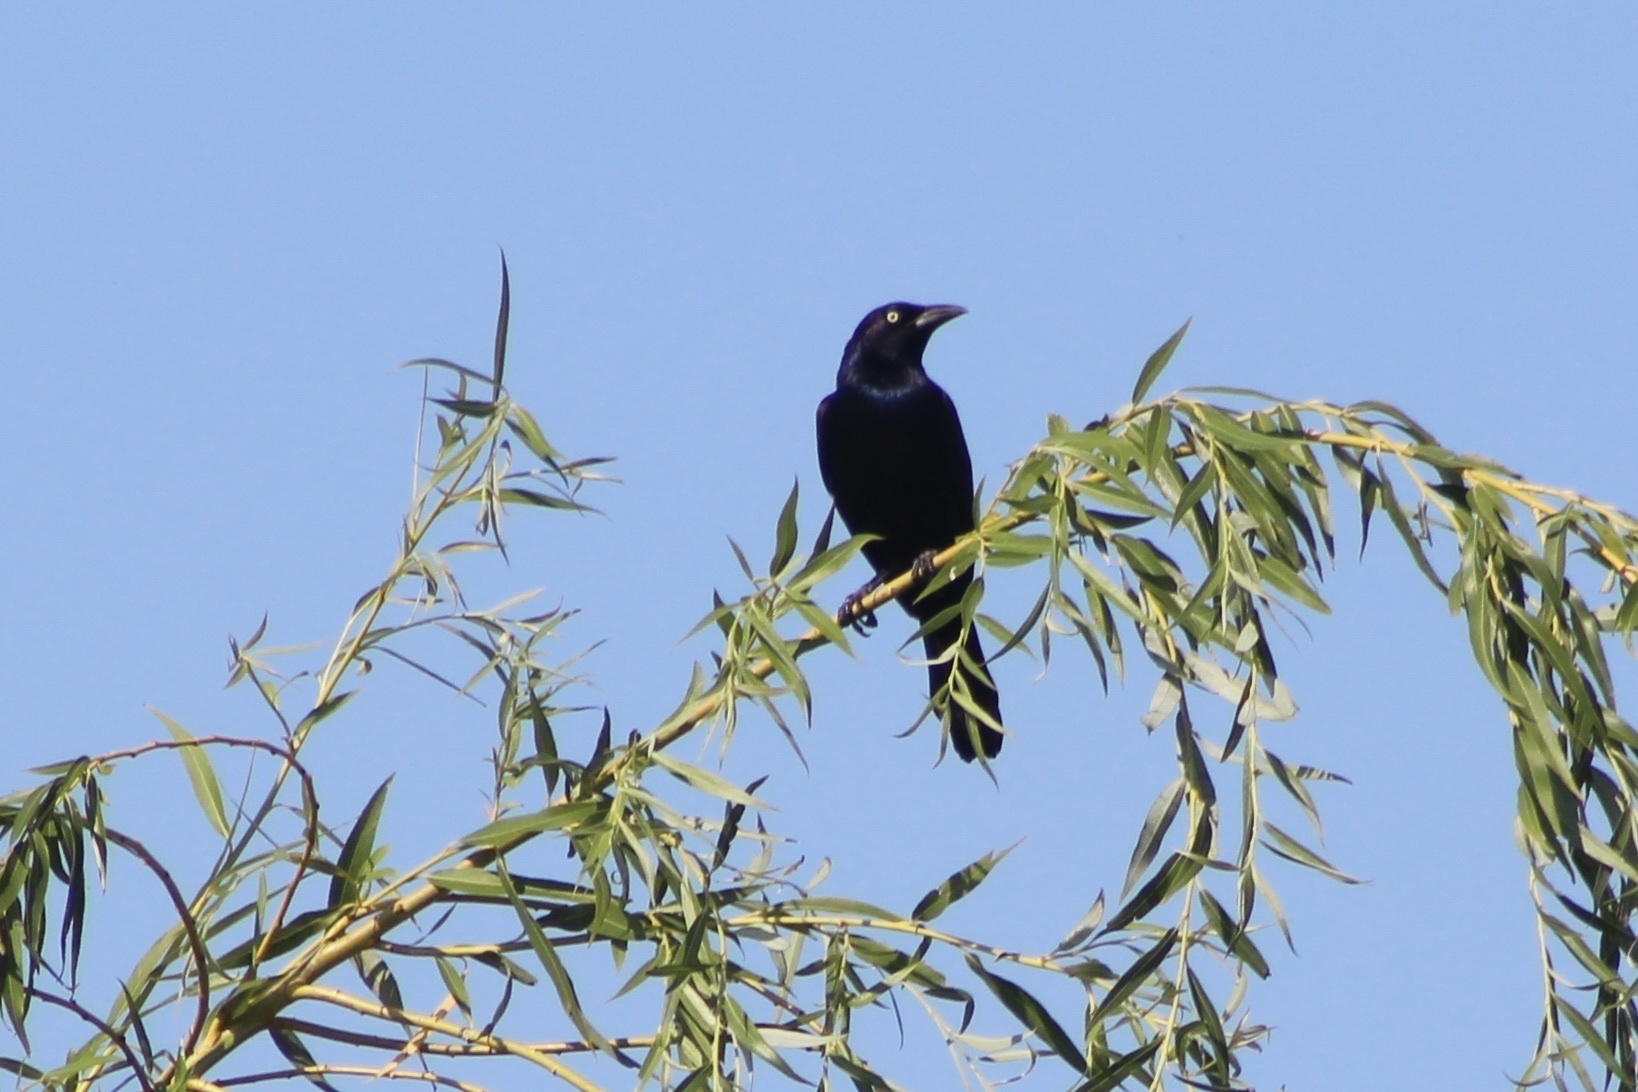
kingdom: Animalia
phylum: Chordata
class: Aves
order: Passeriformes
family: Icteridae
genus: Quiscalus
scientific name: Quiscalus quiscula
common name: Common grackle
